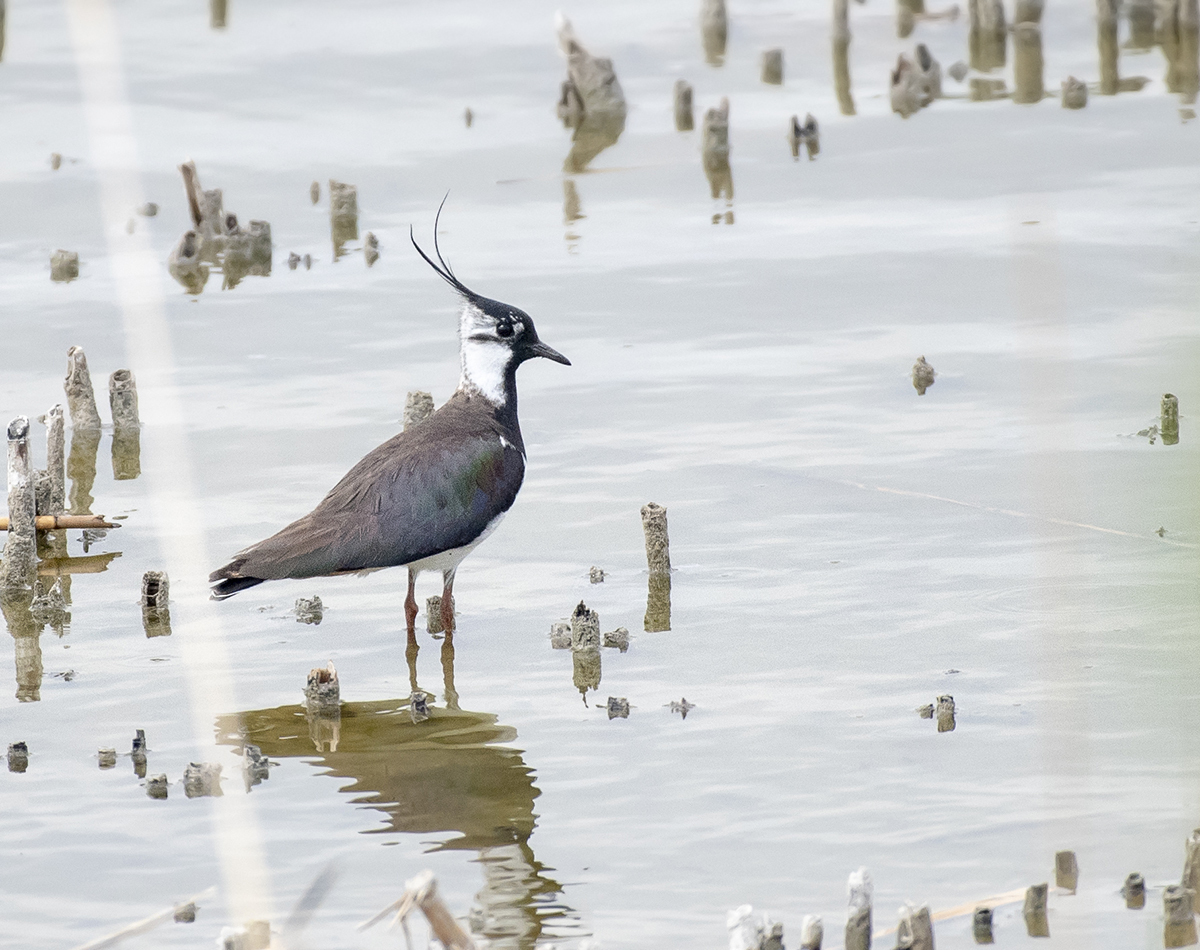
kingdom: Animalia
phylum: Chordata
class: Aves
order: Charadriiformes
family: Charadriidae
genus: Vanellus
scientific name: Vanellus vanellus
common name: Northern lapwing
